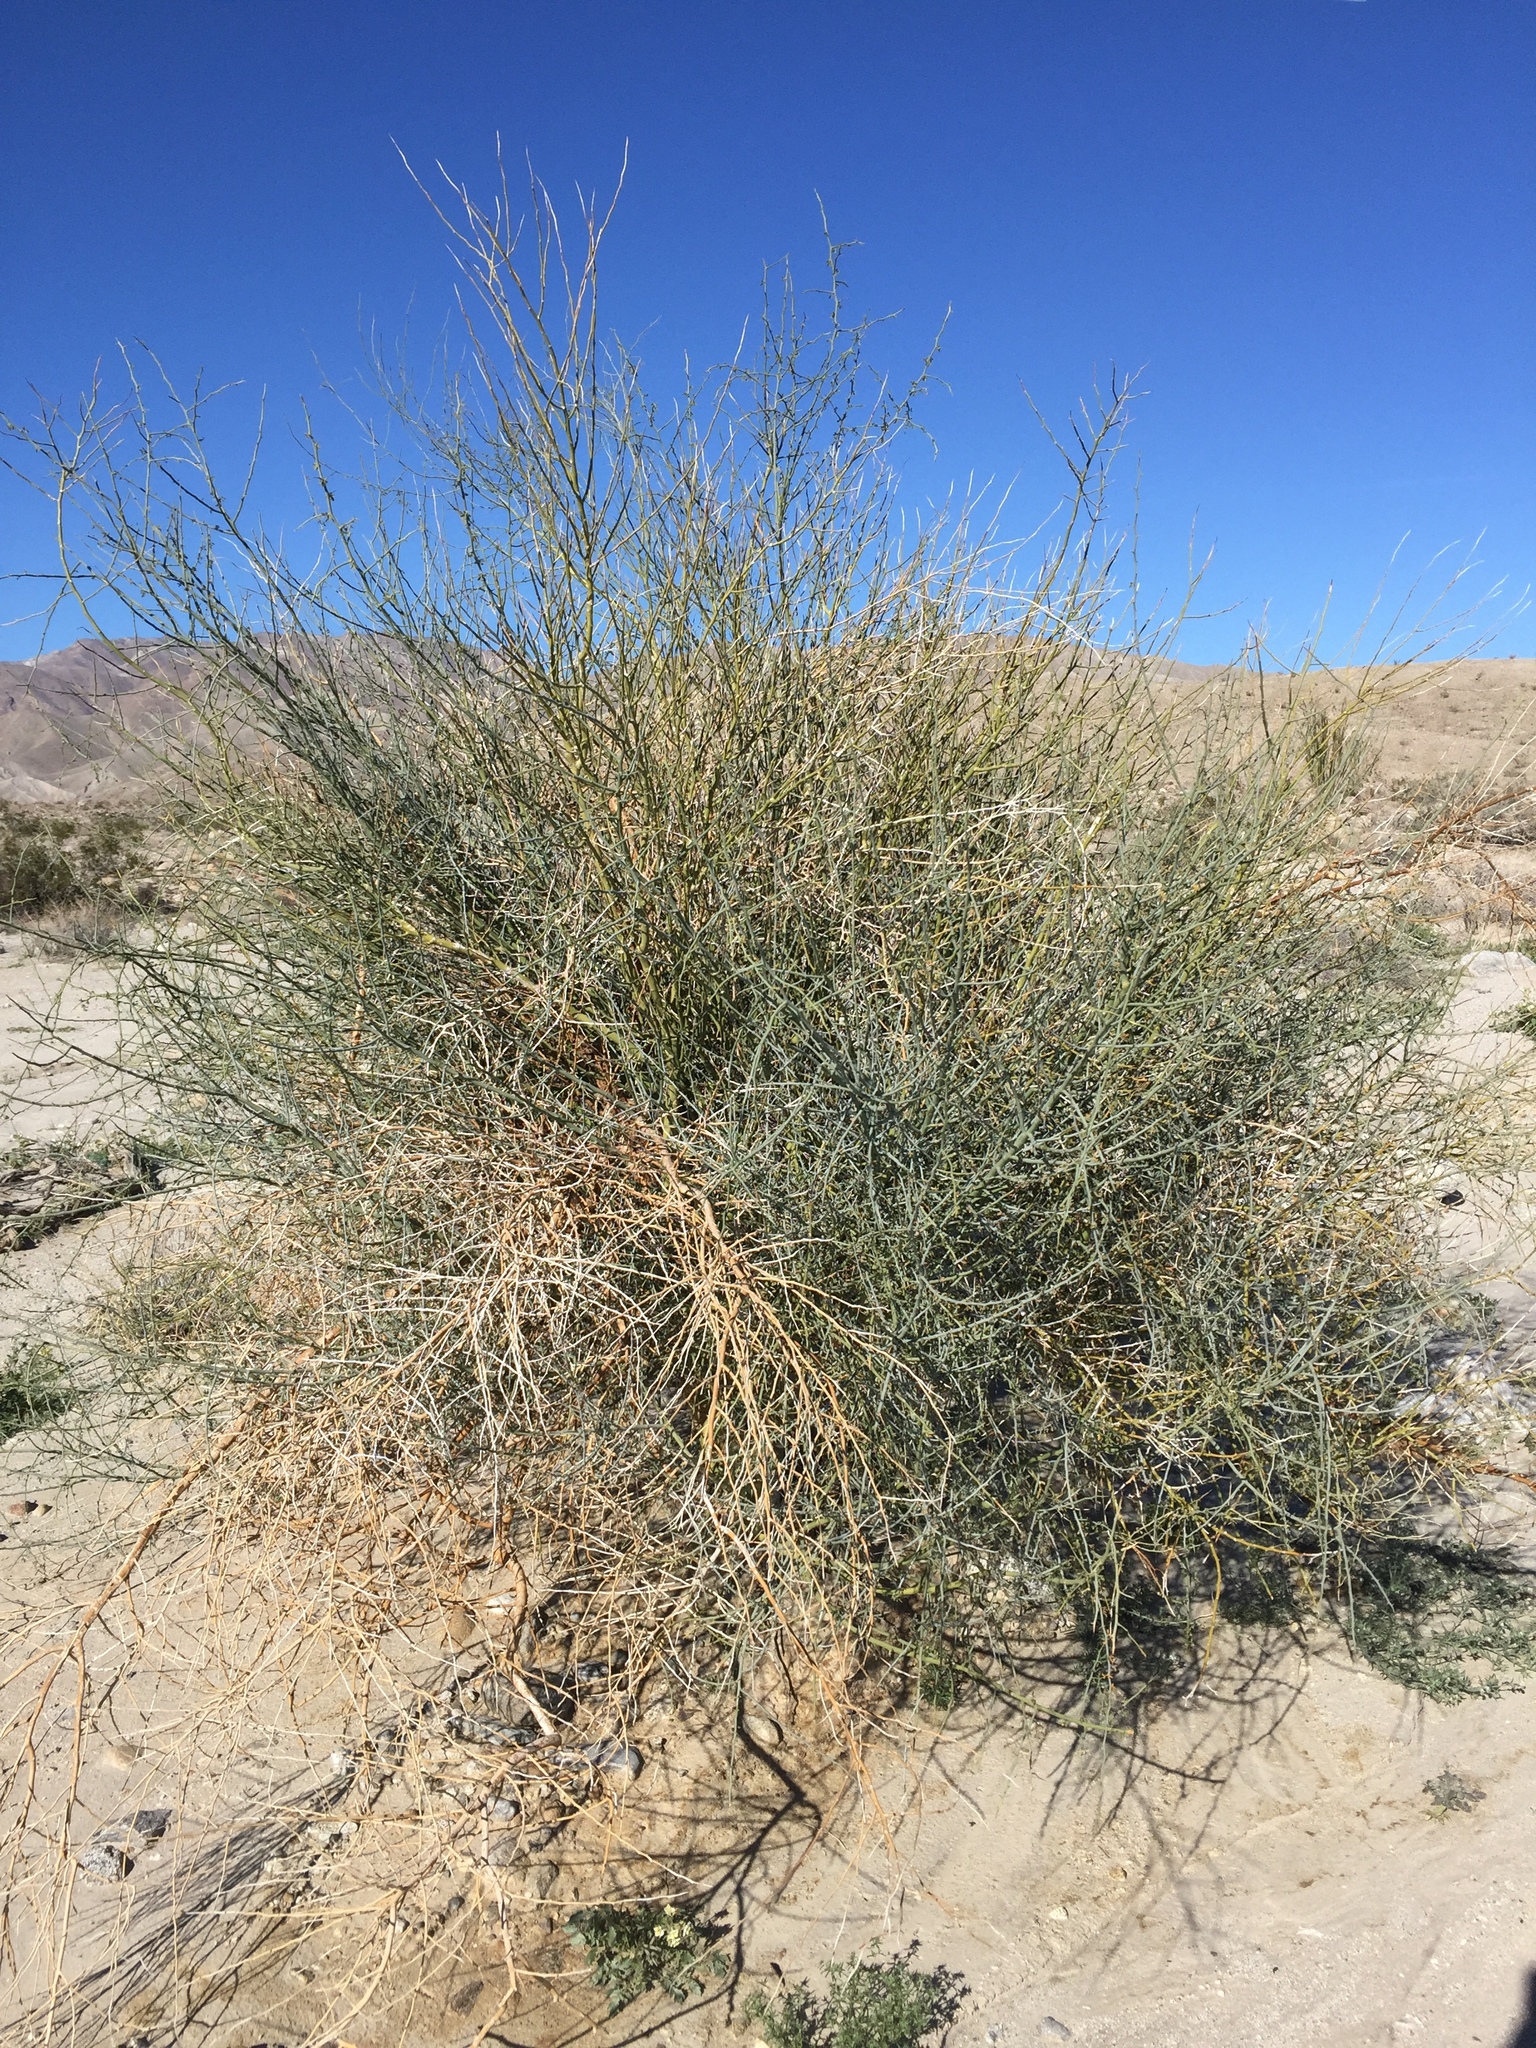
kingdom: Plantae
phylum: Tracheophyta
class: Magnoliopsida
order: Fabales
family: Fabaceae
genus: Parkinsonia
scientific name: Parkinsonia florida
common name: Blue paloverde
